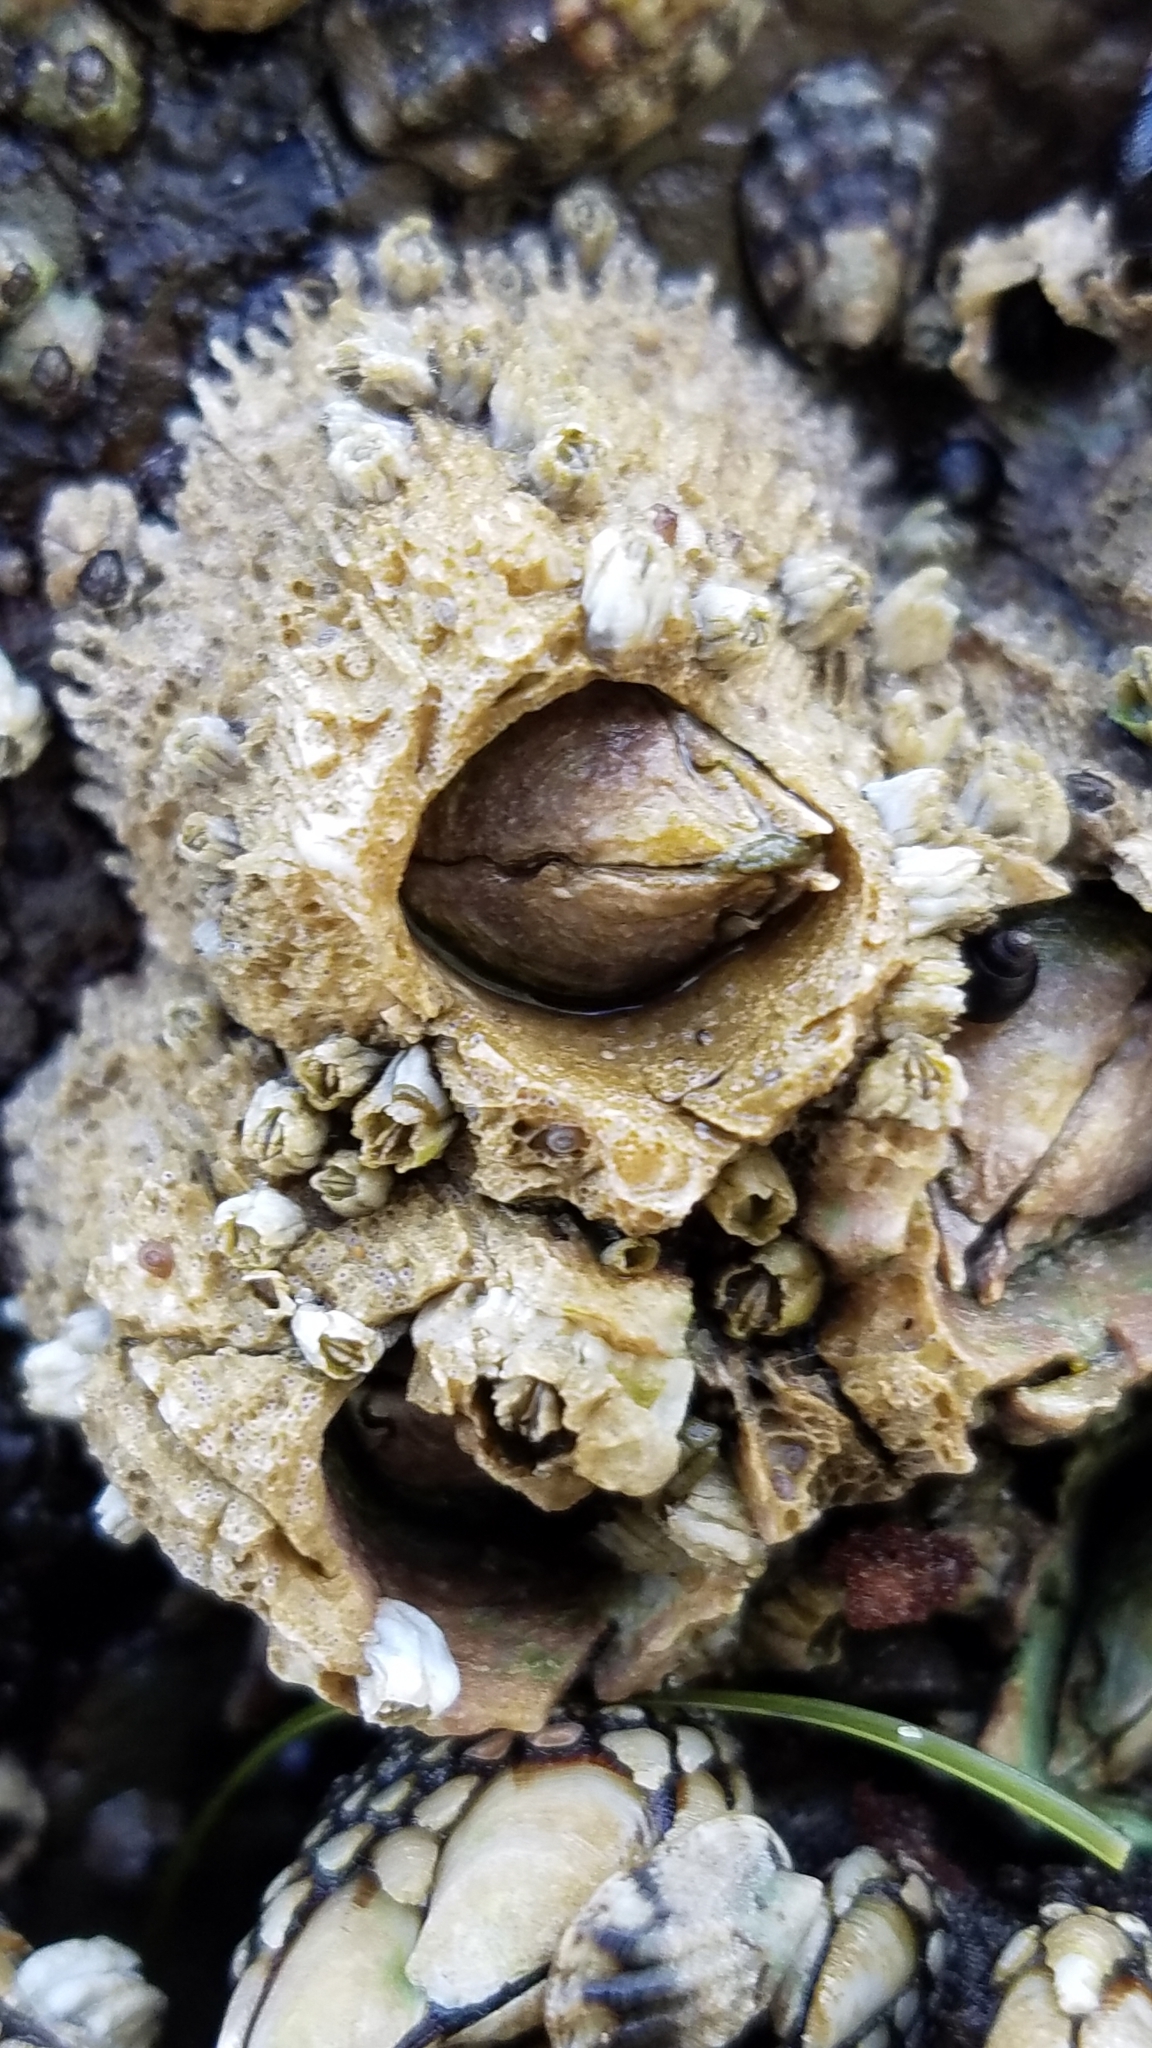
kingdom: Animalia
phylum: Arthropoda
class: Maxillopoda
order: Sessilia
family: Archaeobalanidae
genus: Semibalanus
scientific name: Semibalanus cariosus
